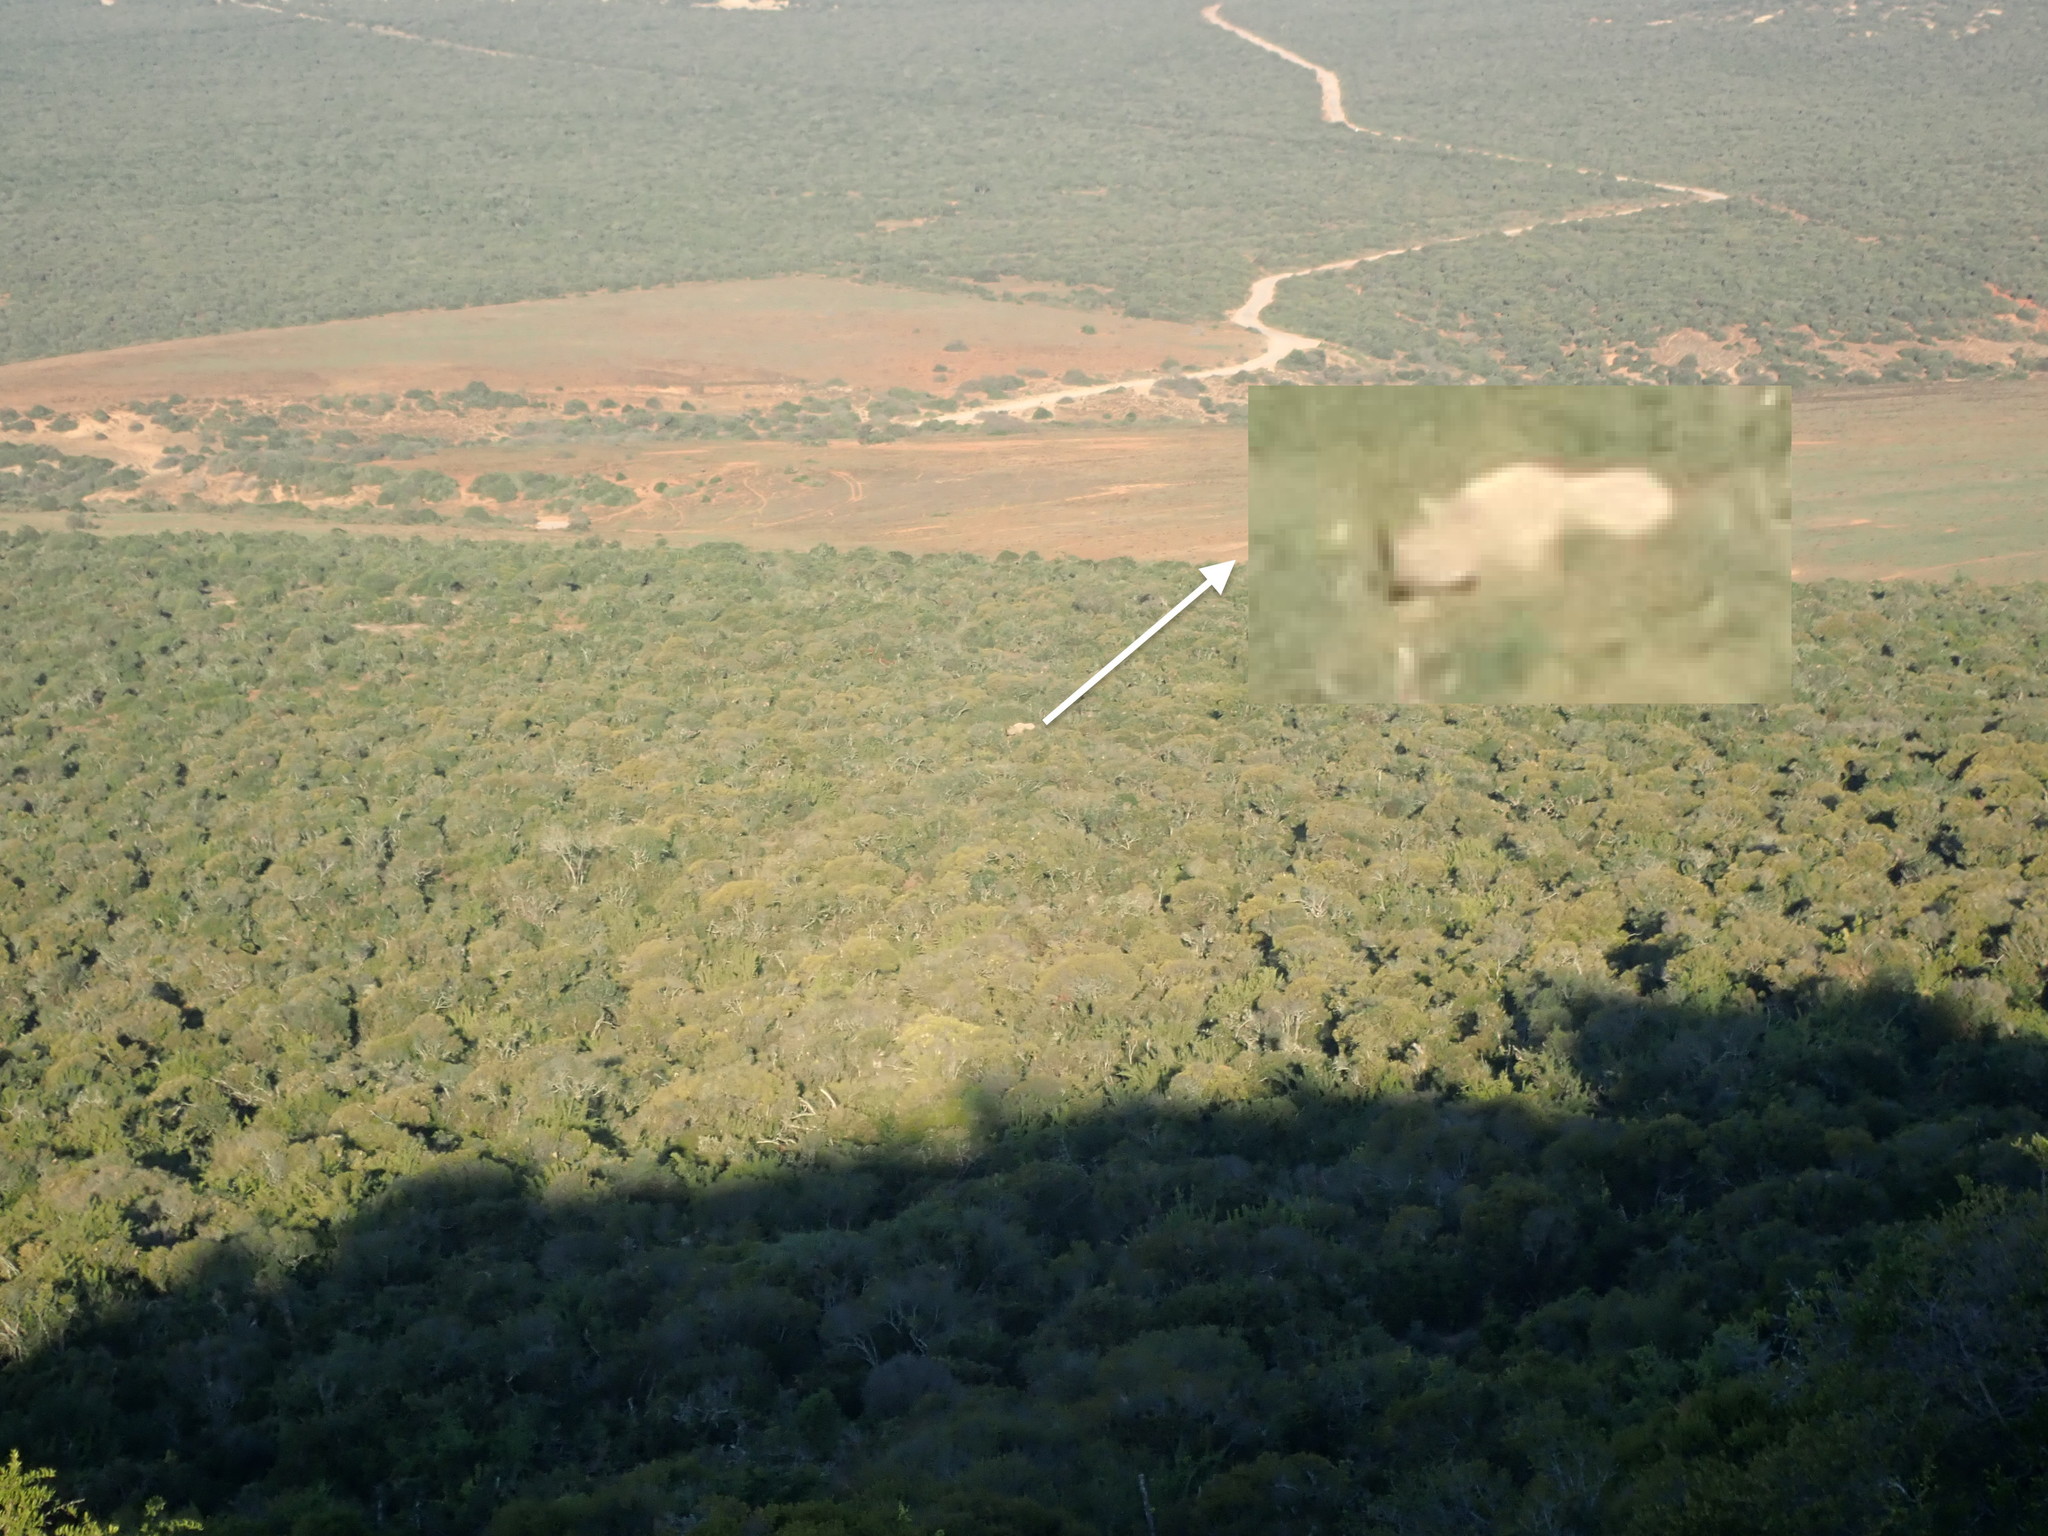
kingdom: Animalia
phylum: Chordata
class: Mammalia
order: Perissodactyla
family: Rhinocerotidae
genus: Diceros
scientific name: Diceros bicornis
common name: Black rhinoceros
